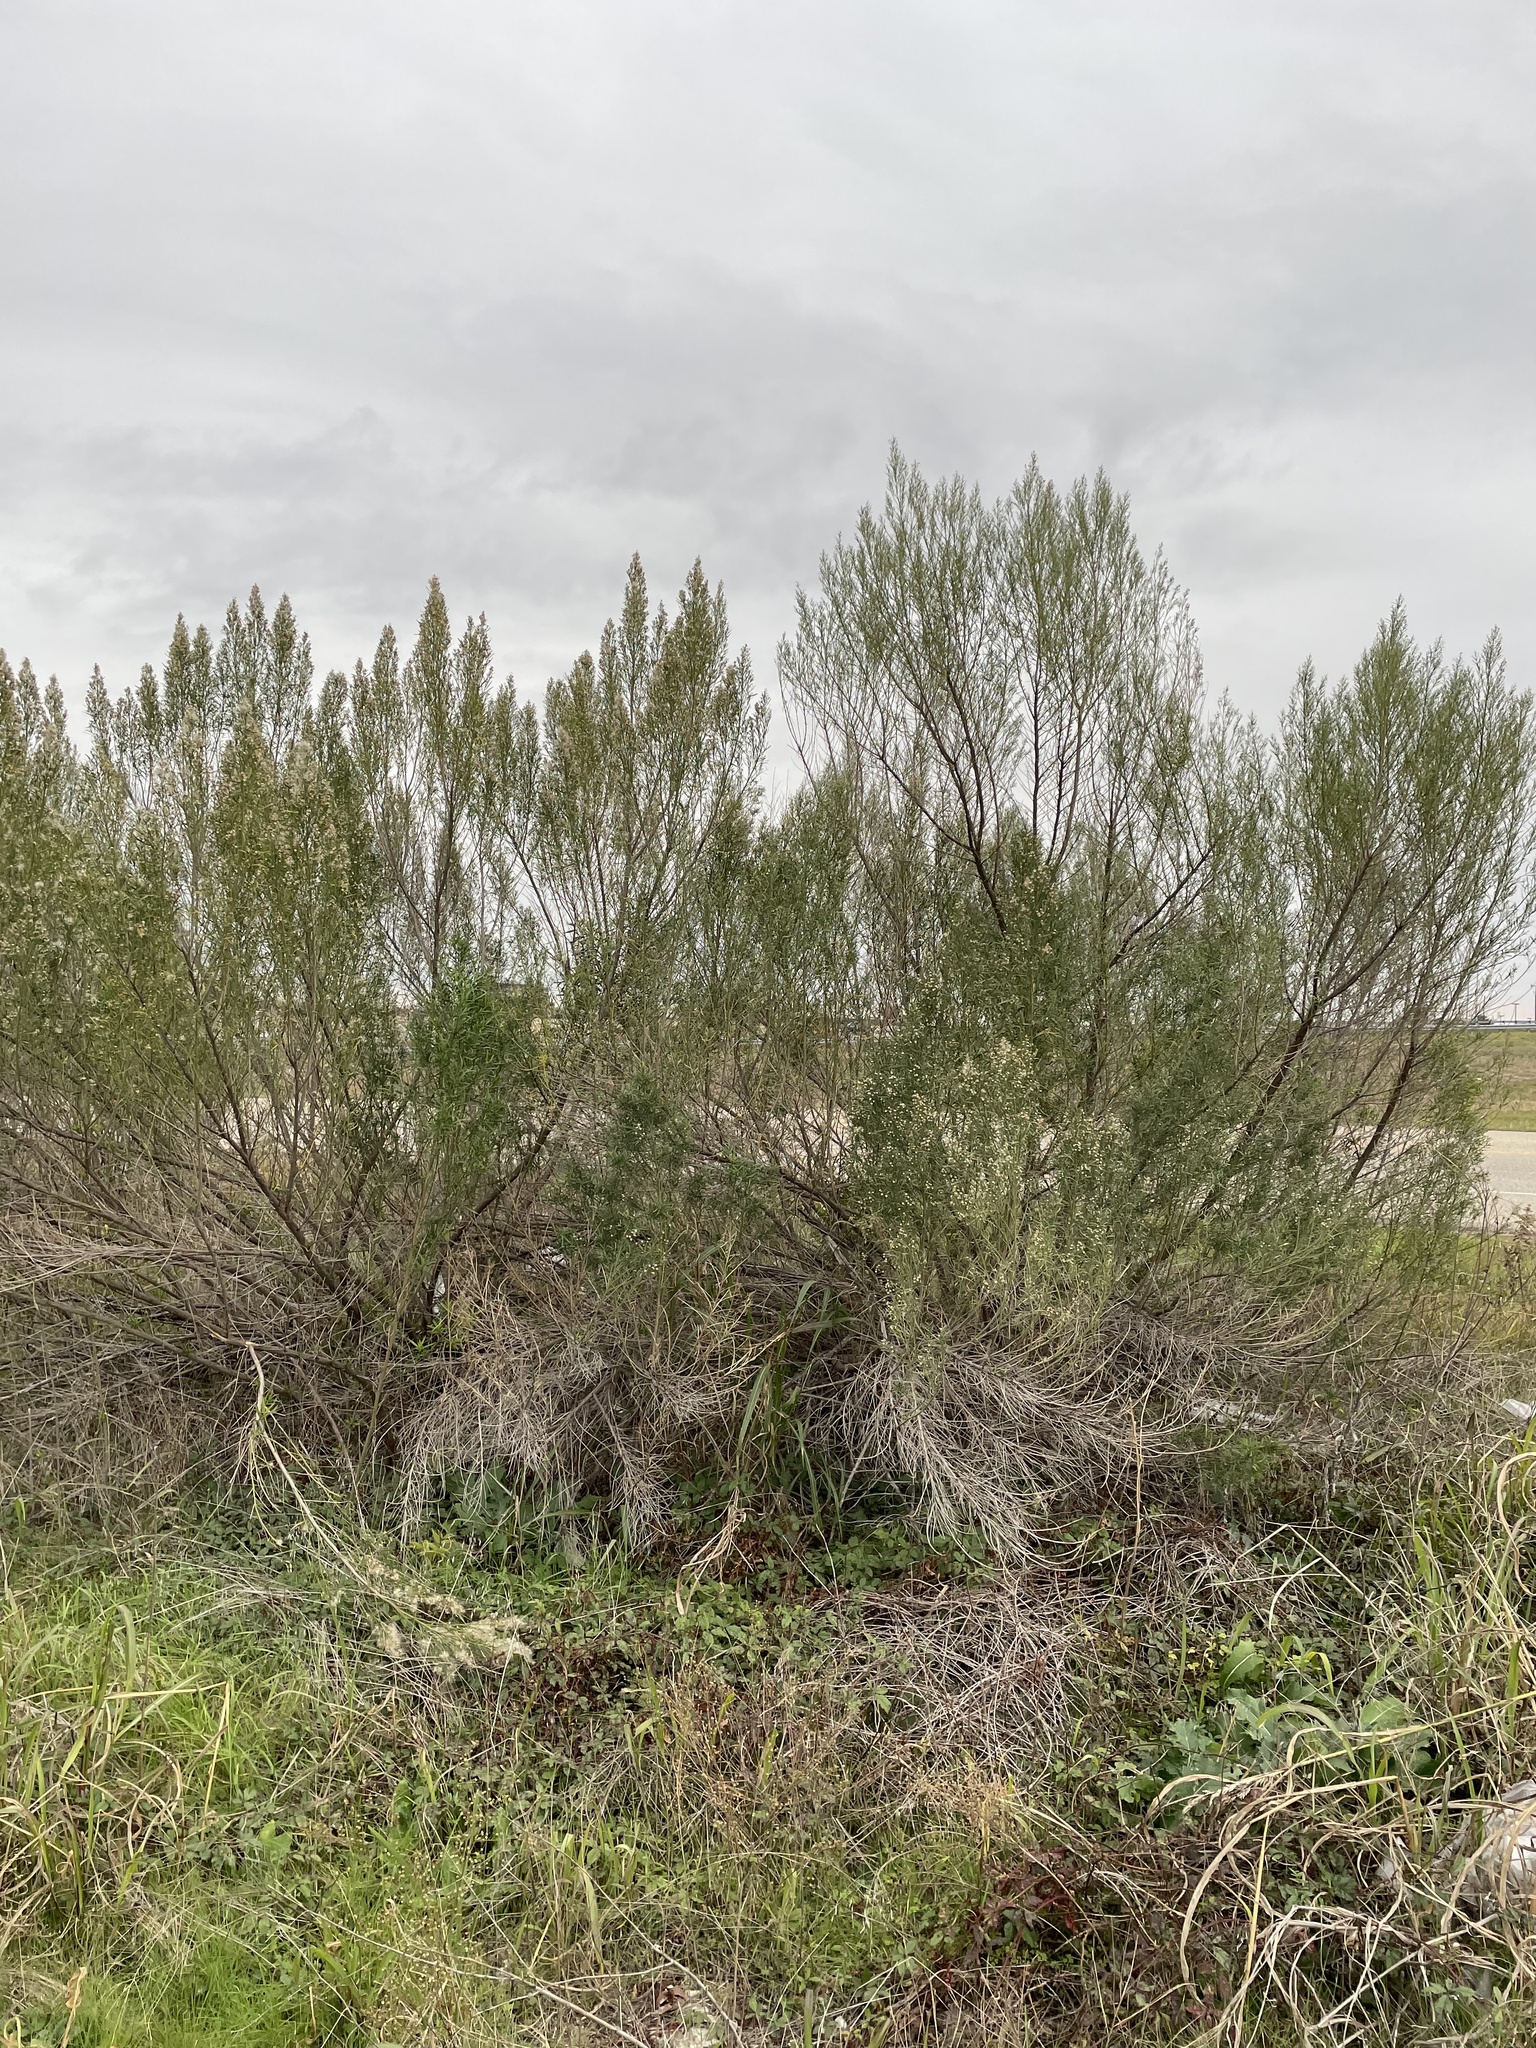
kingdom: Plantae
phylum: Tracheophyta
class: Magnoliopsida
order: Asterales
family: Asteraceae
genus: Baccharis
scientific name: Baccharis neglecta
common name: Roosevelt-weed
